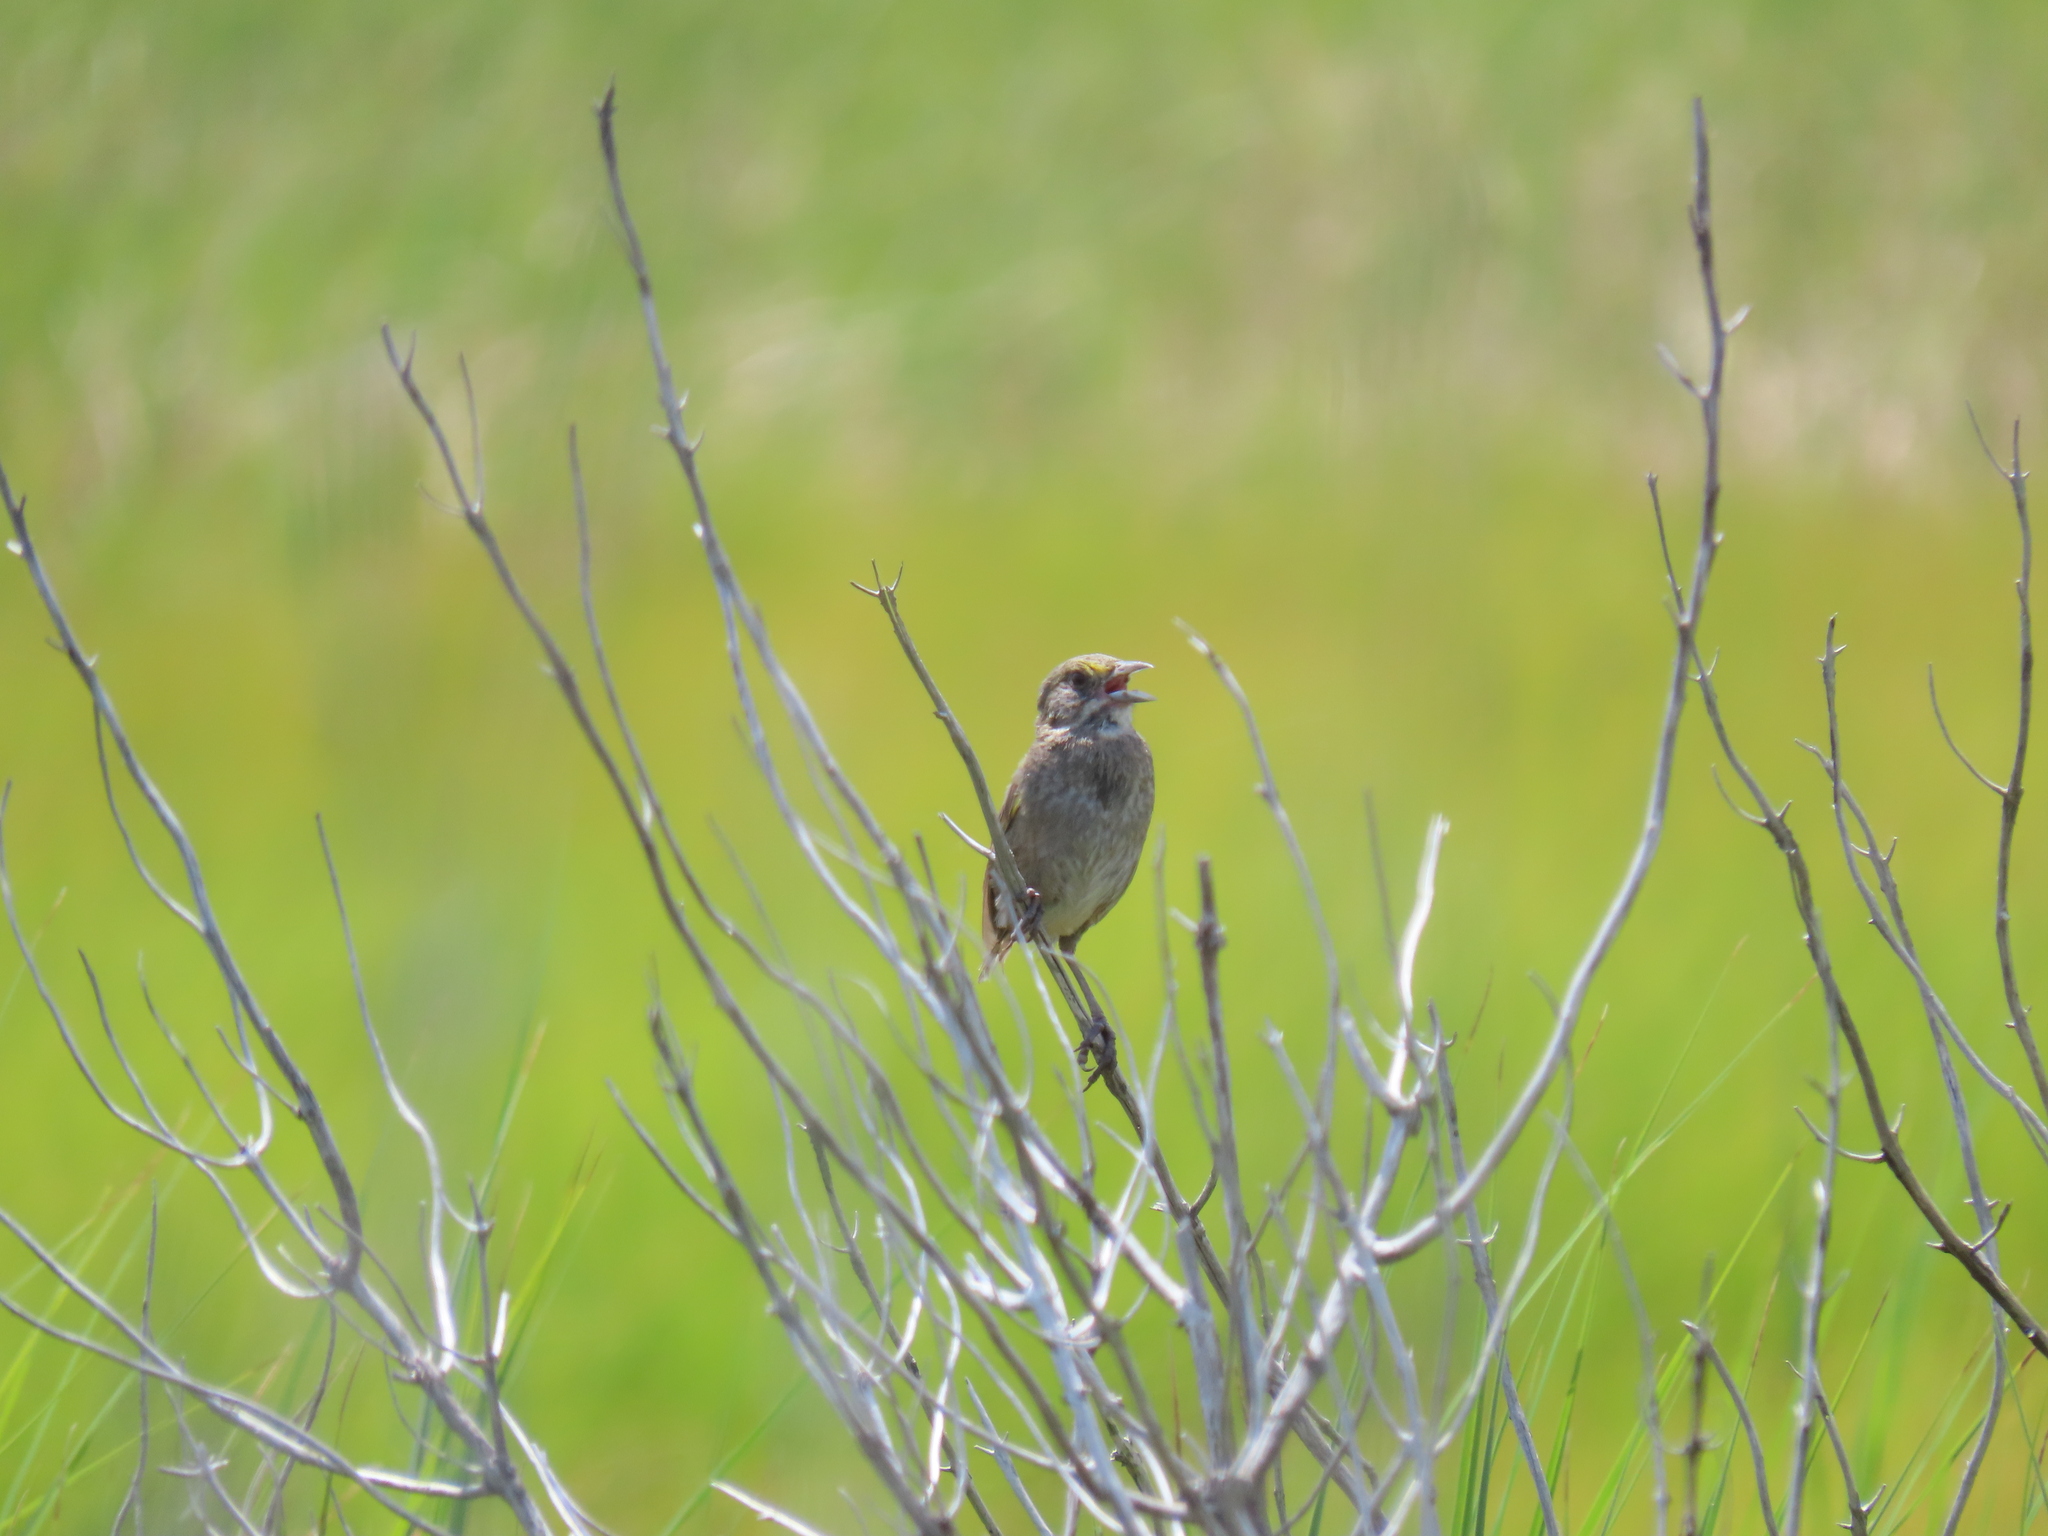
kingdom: Animalia
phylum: Chordata
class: Aves
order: Passeriformes
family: Passerellidae
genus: Ammospiza
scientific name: Ammospiza maritima
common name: Seaside sparrow
